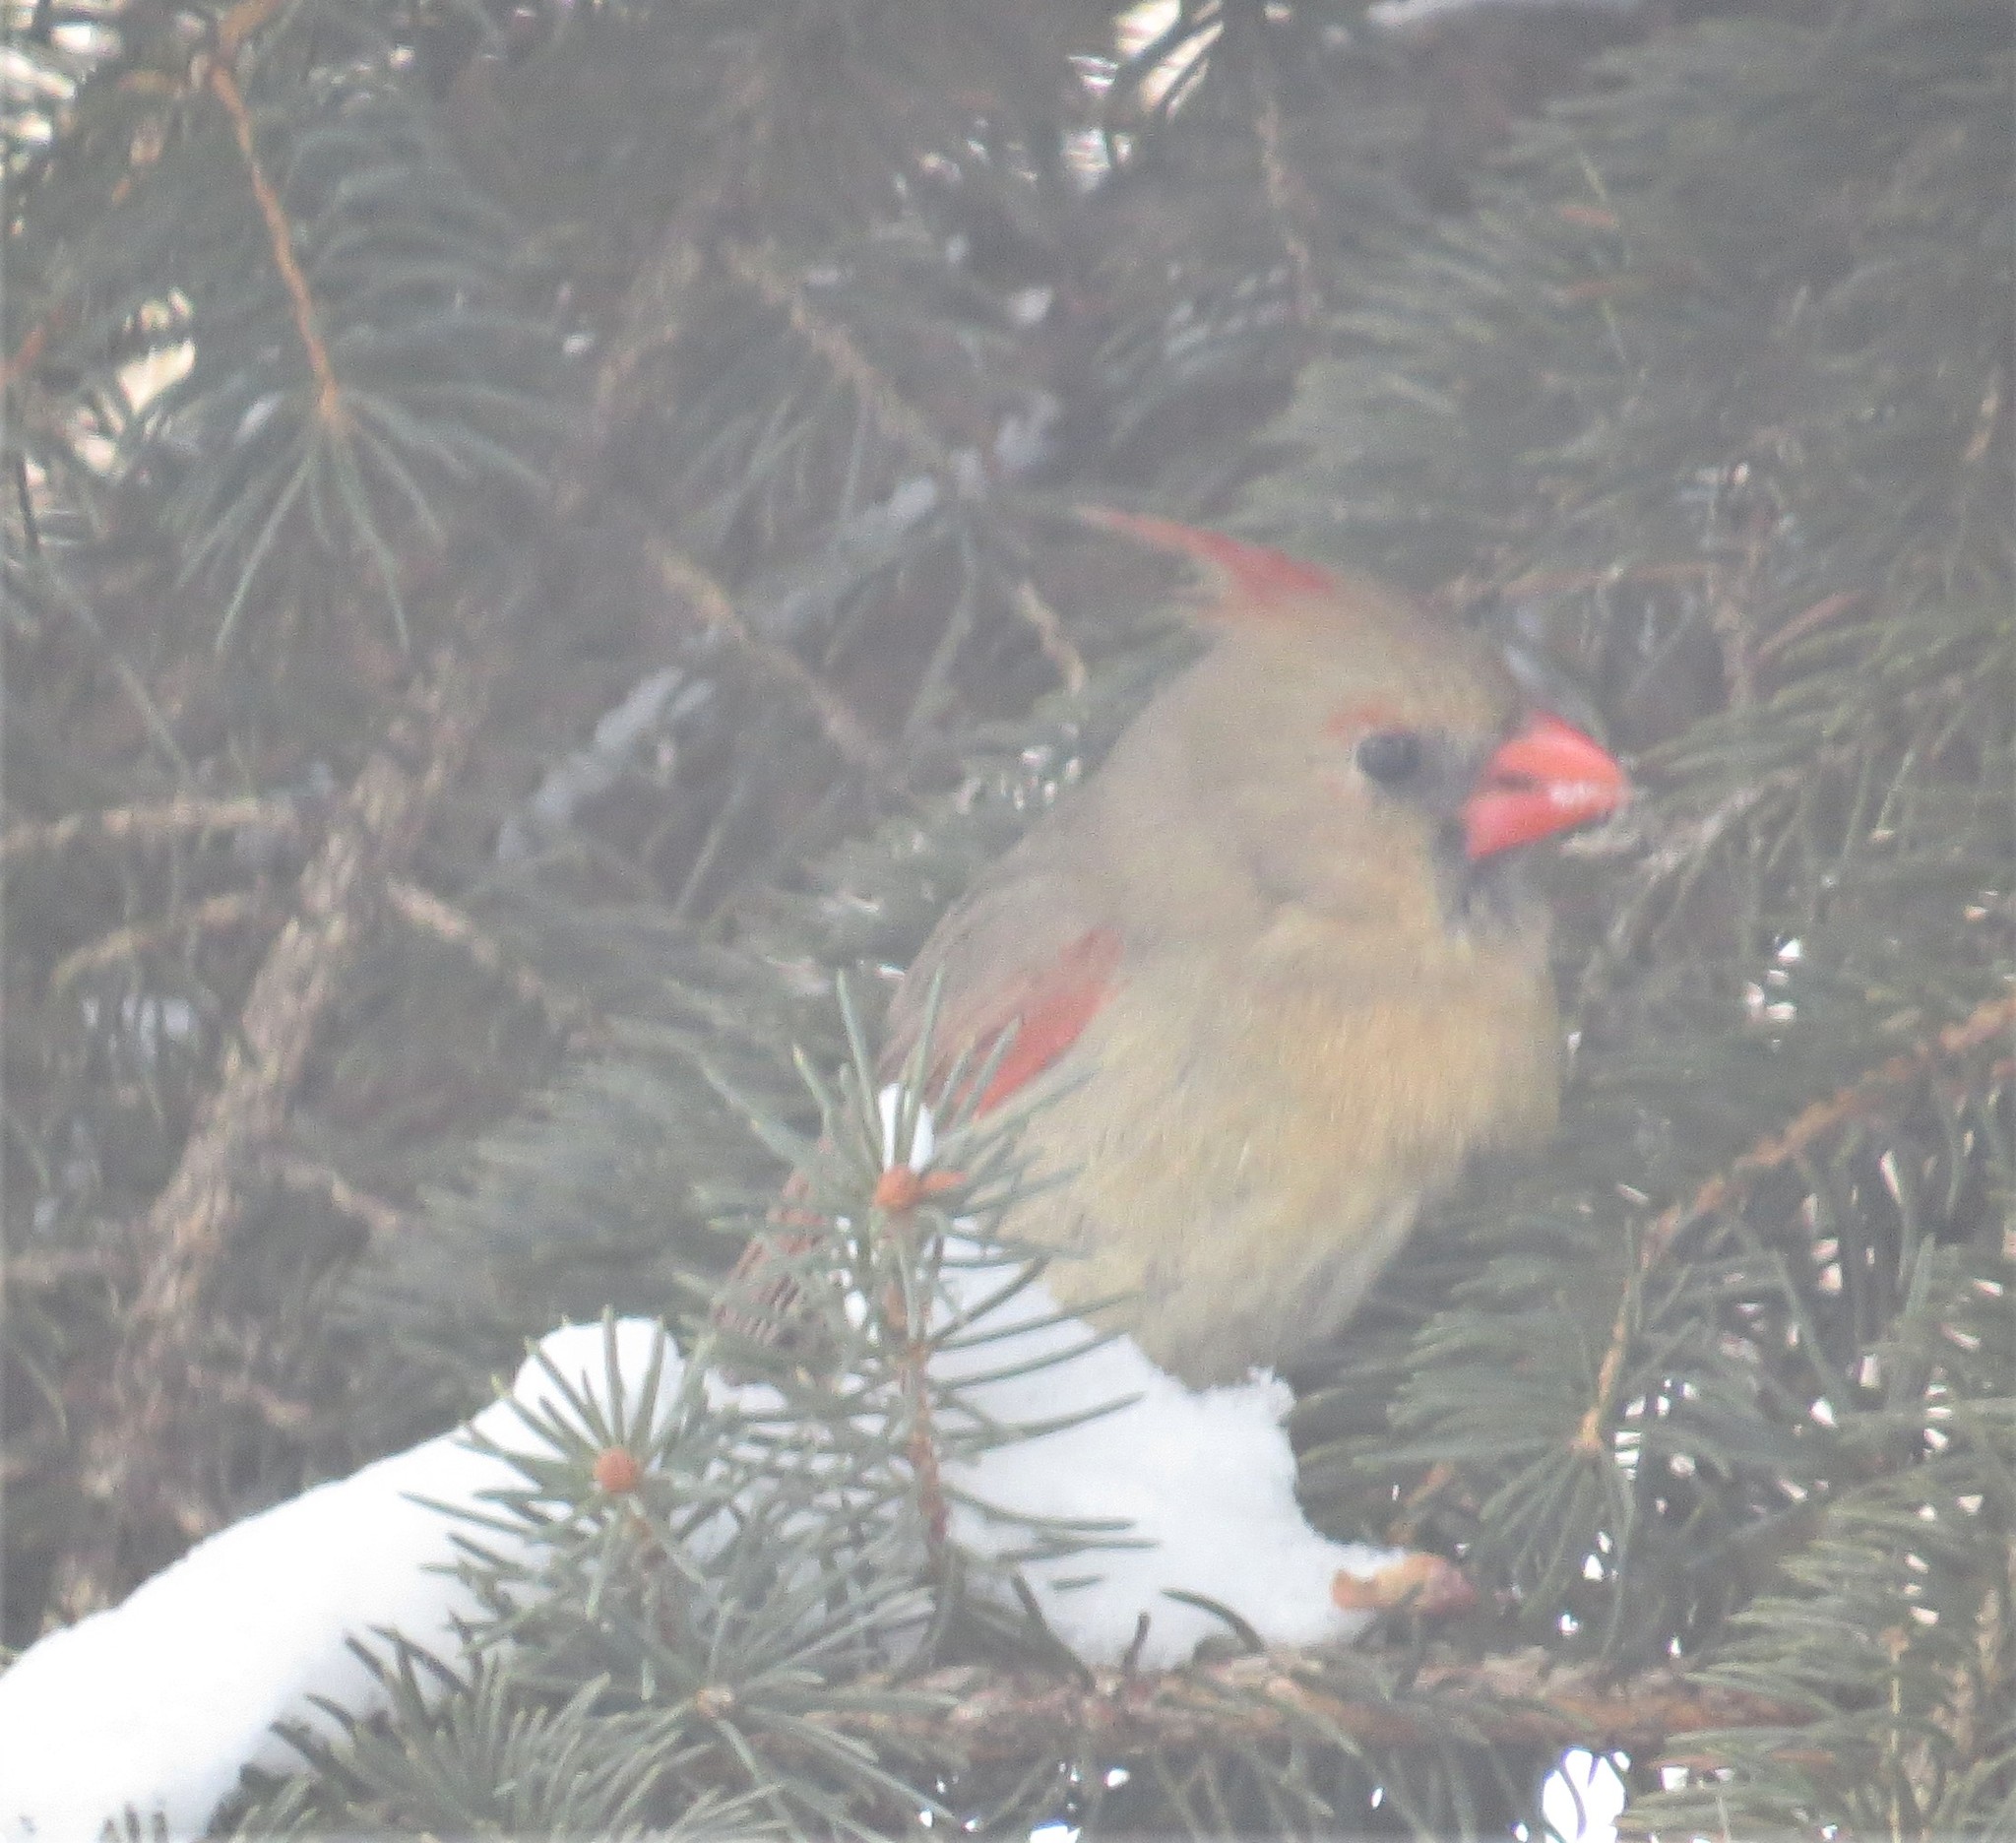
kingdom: Animalia
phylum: Chordata
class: Aves
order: Passeriformes
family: Cardinalidae
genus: Cardinalis
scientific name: Cardinalis cardinalis
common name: Northern cardinal
